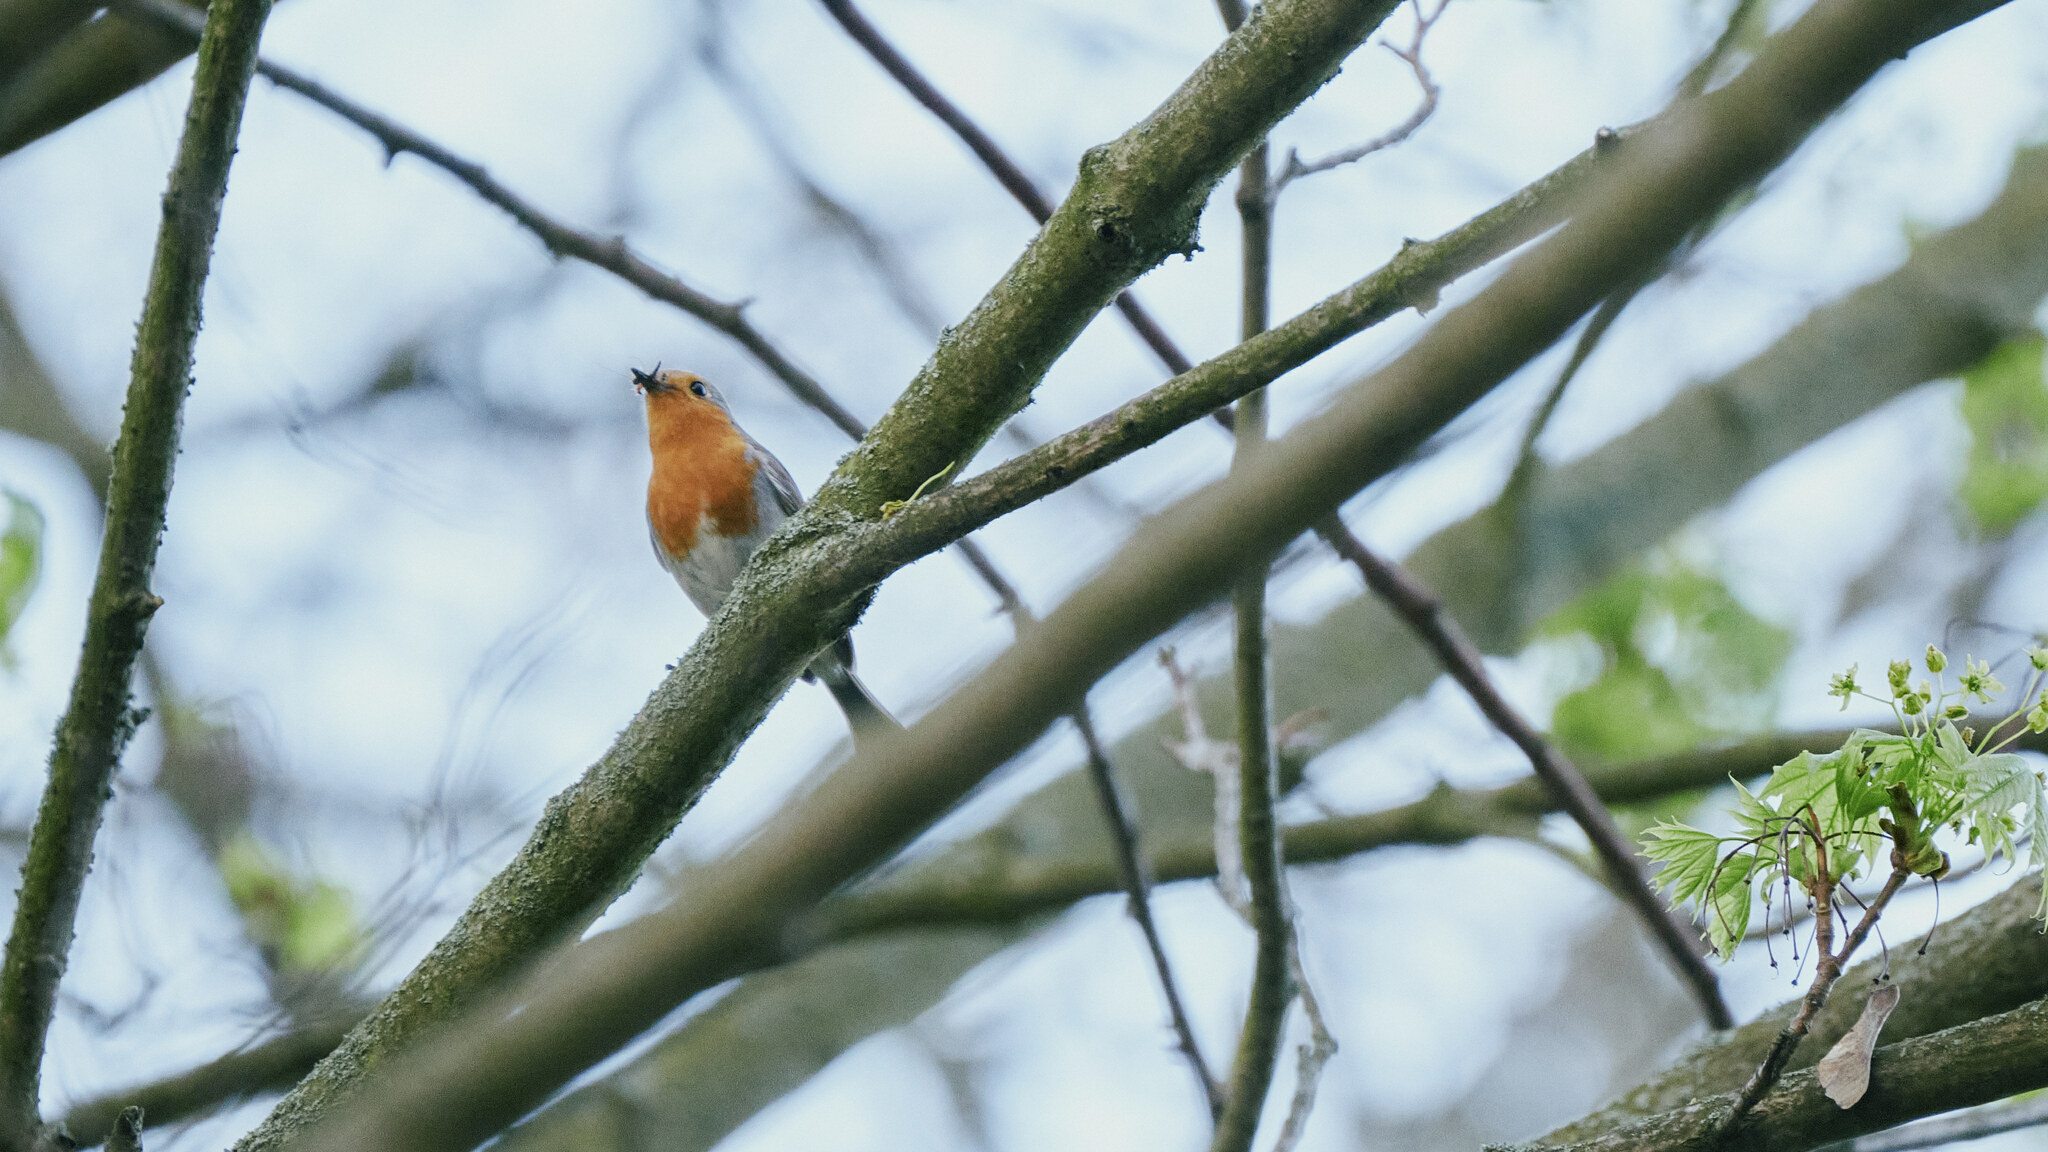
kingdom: Animalia
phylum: Chordata
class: Aves
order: Passeriformes
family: Muscicapidae
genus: Erithacus
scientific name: Erithacus rubecula
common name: European robin
